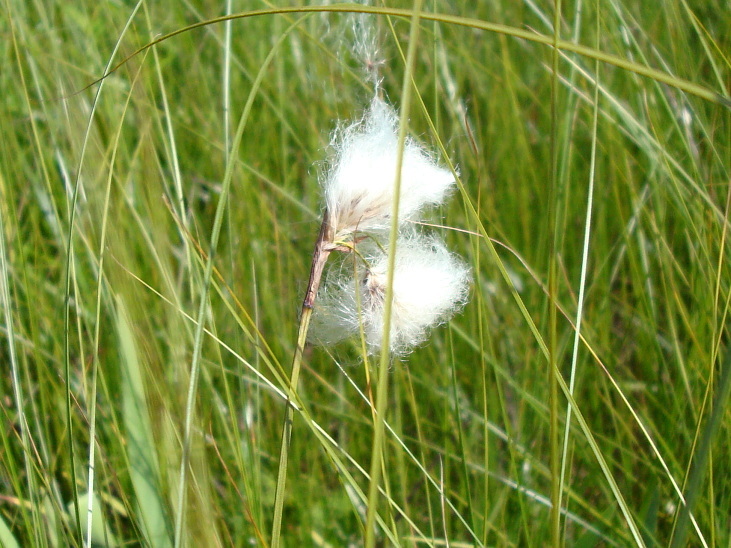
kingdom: Plantae
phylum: Tracheophyta
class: Liliopsida
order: Poales
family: Cyperaceae
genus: Eriophorum
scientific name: Eriophorum angustifolium
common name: Common cottongrass
